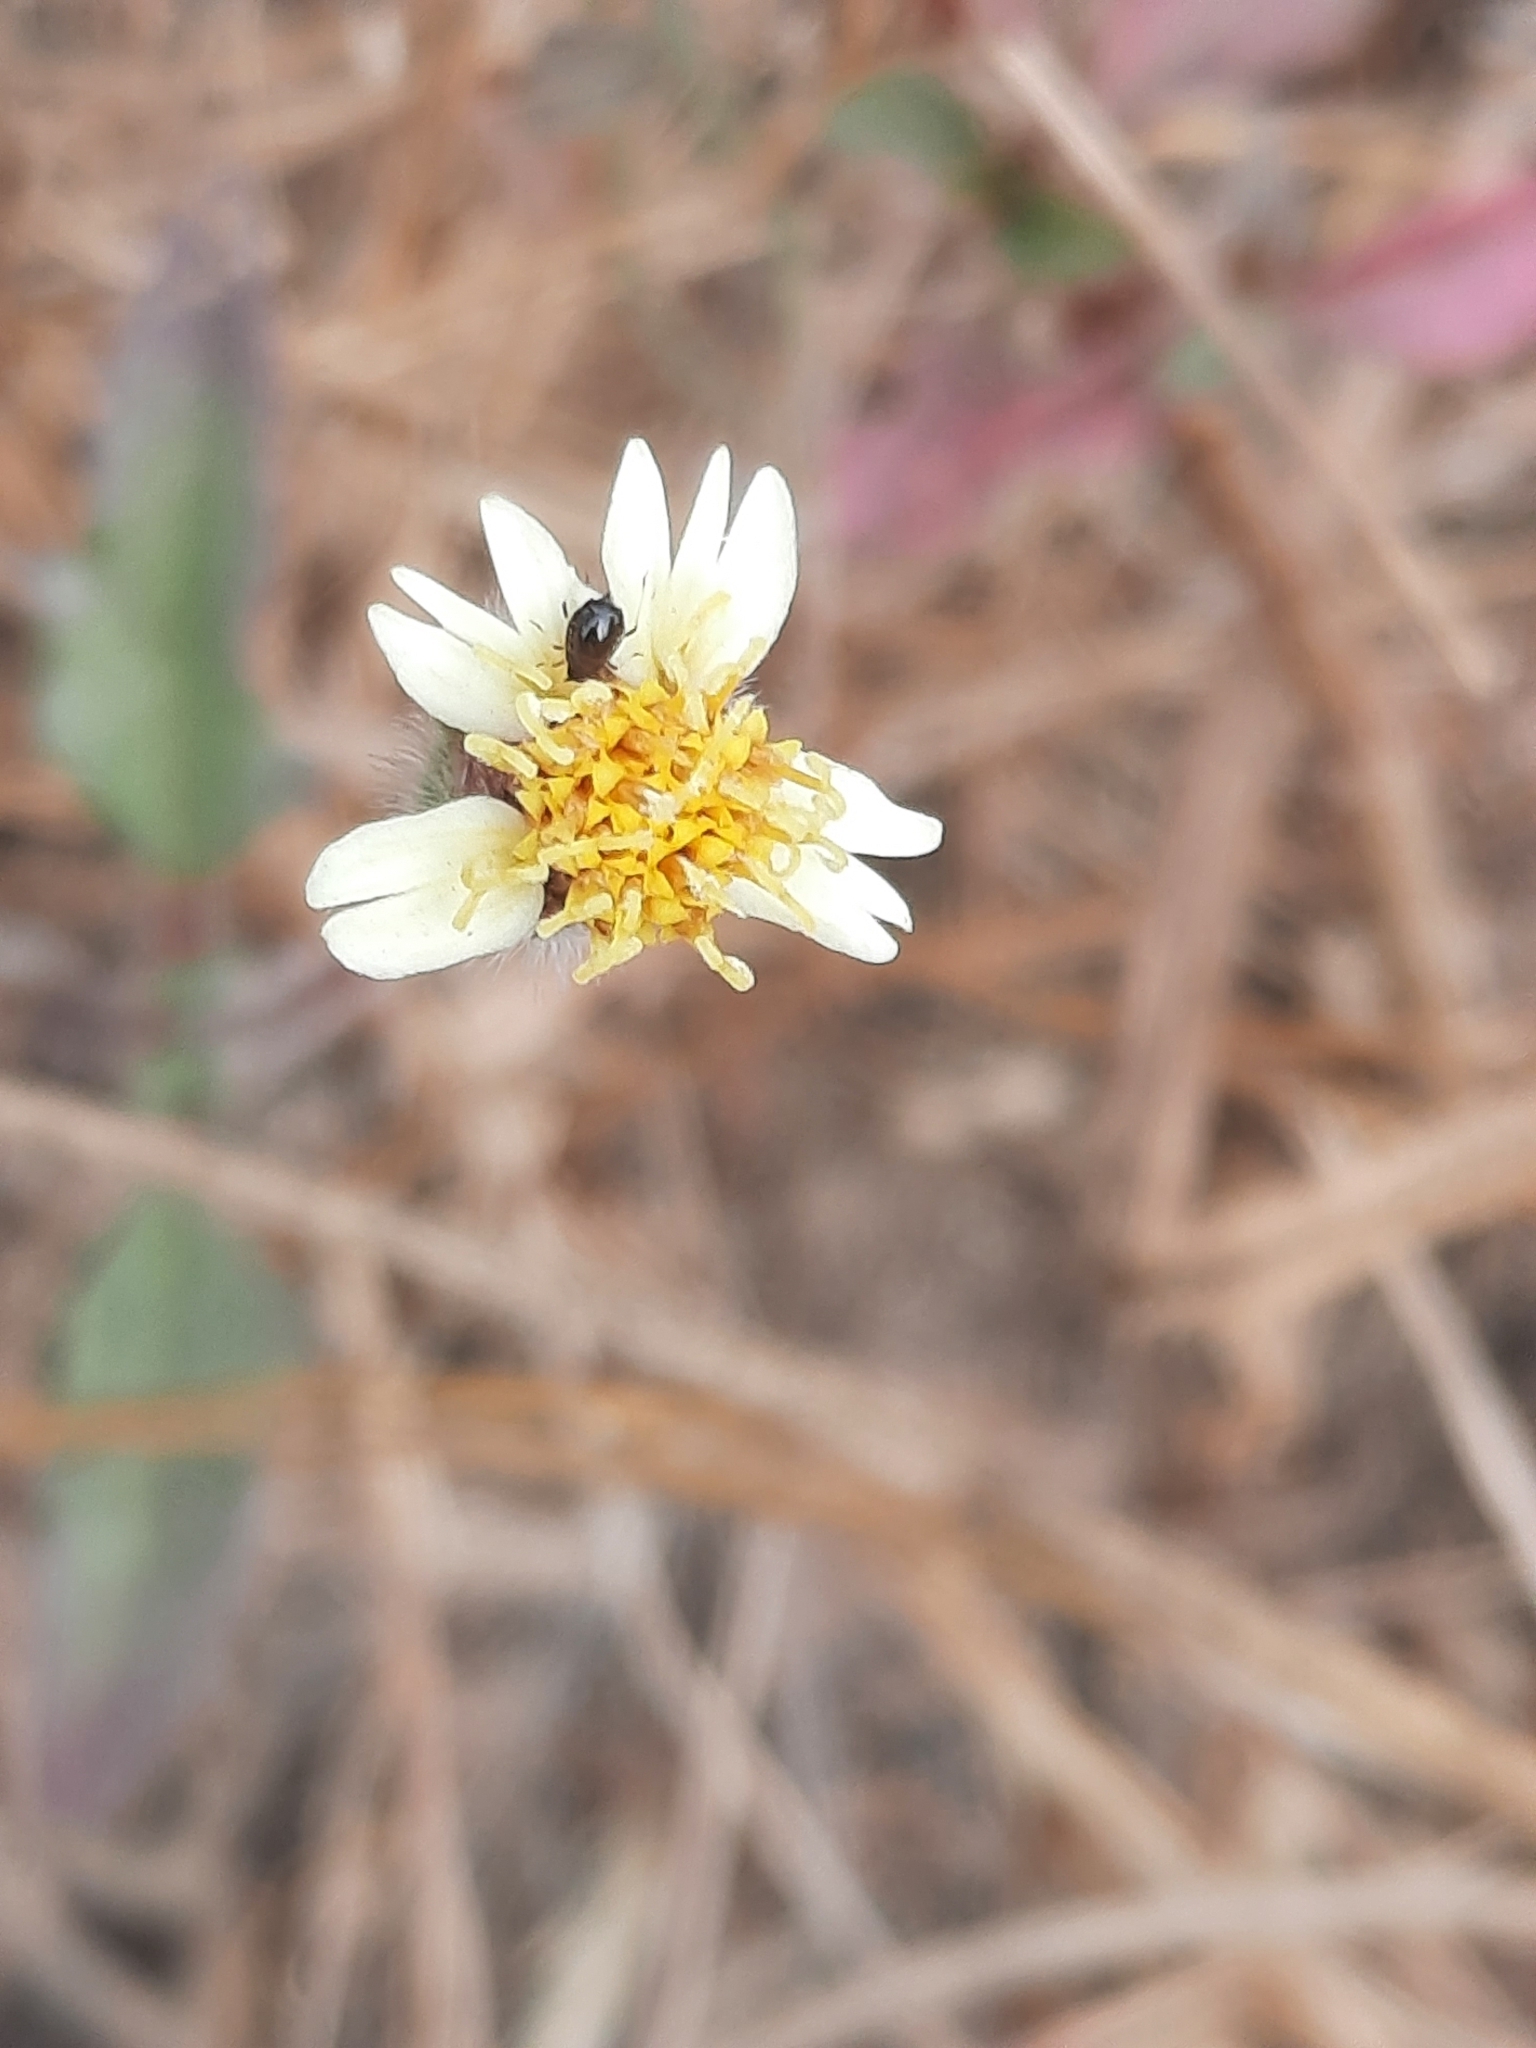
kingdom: Plantae
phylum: Tracheophyta
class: Magnoliopsida
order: Asterales
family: Asteraceae
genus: Tridax
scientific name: Tridax procumbens
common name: Coatbuttons
